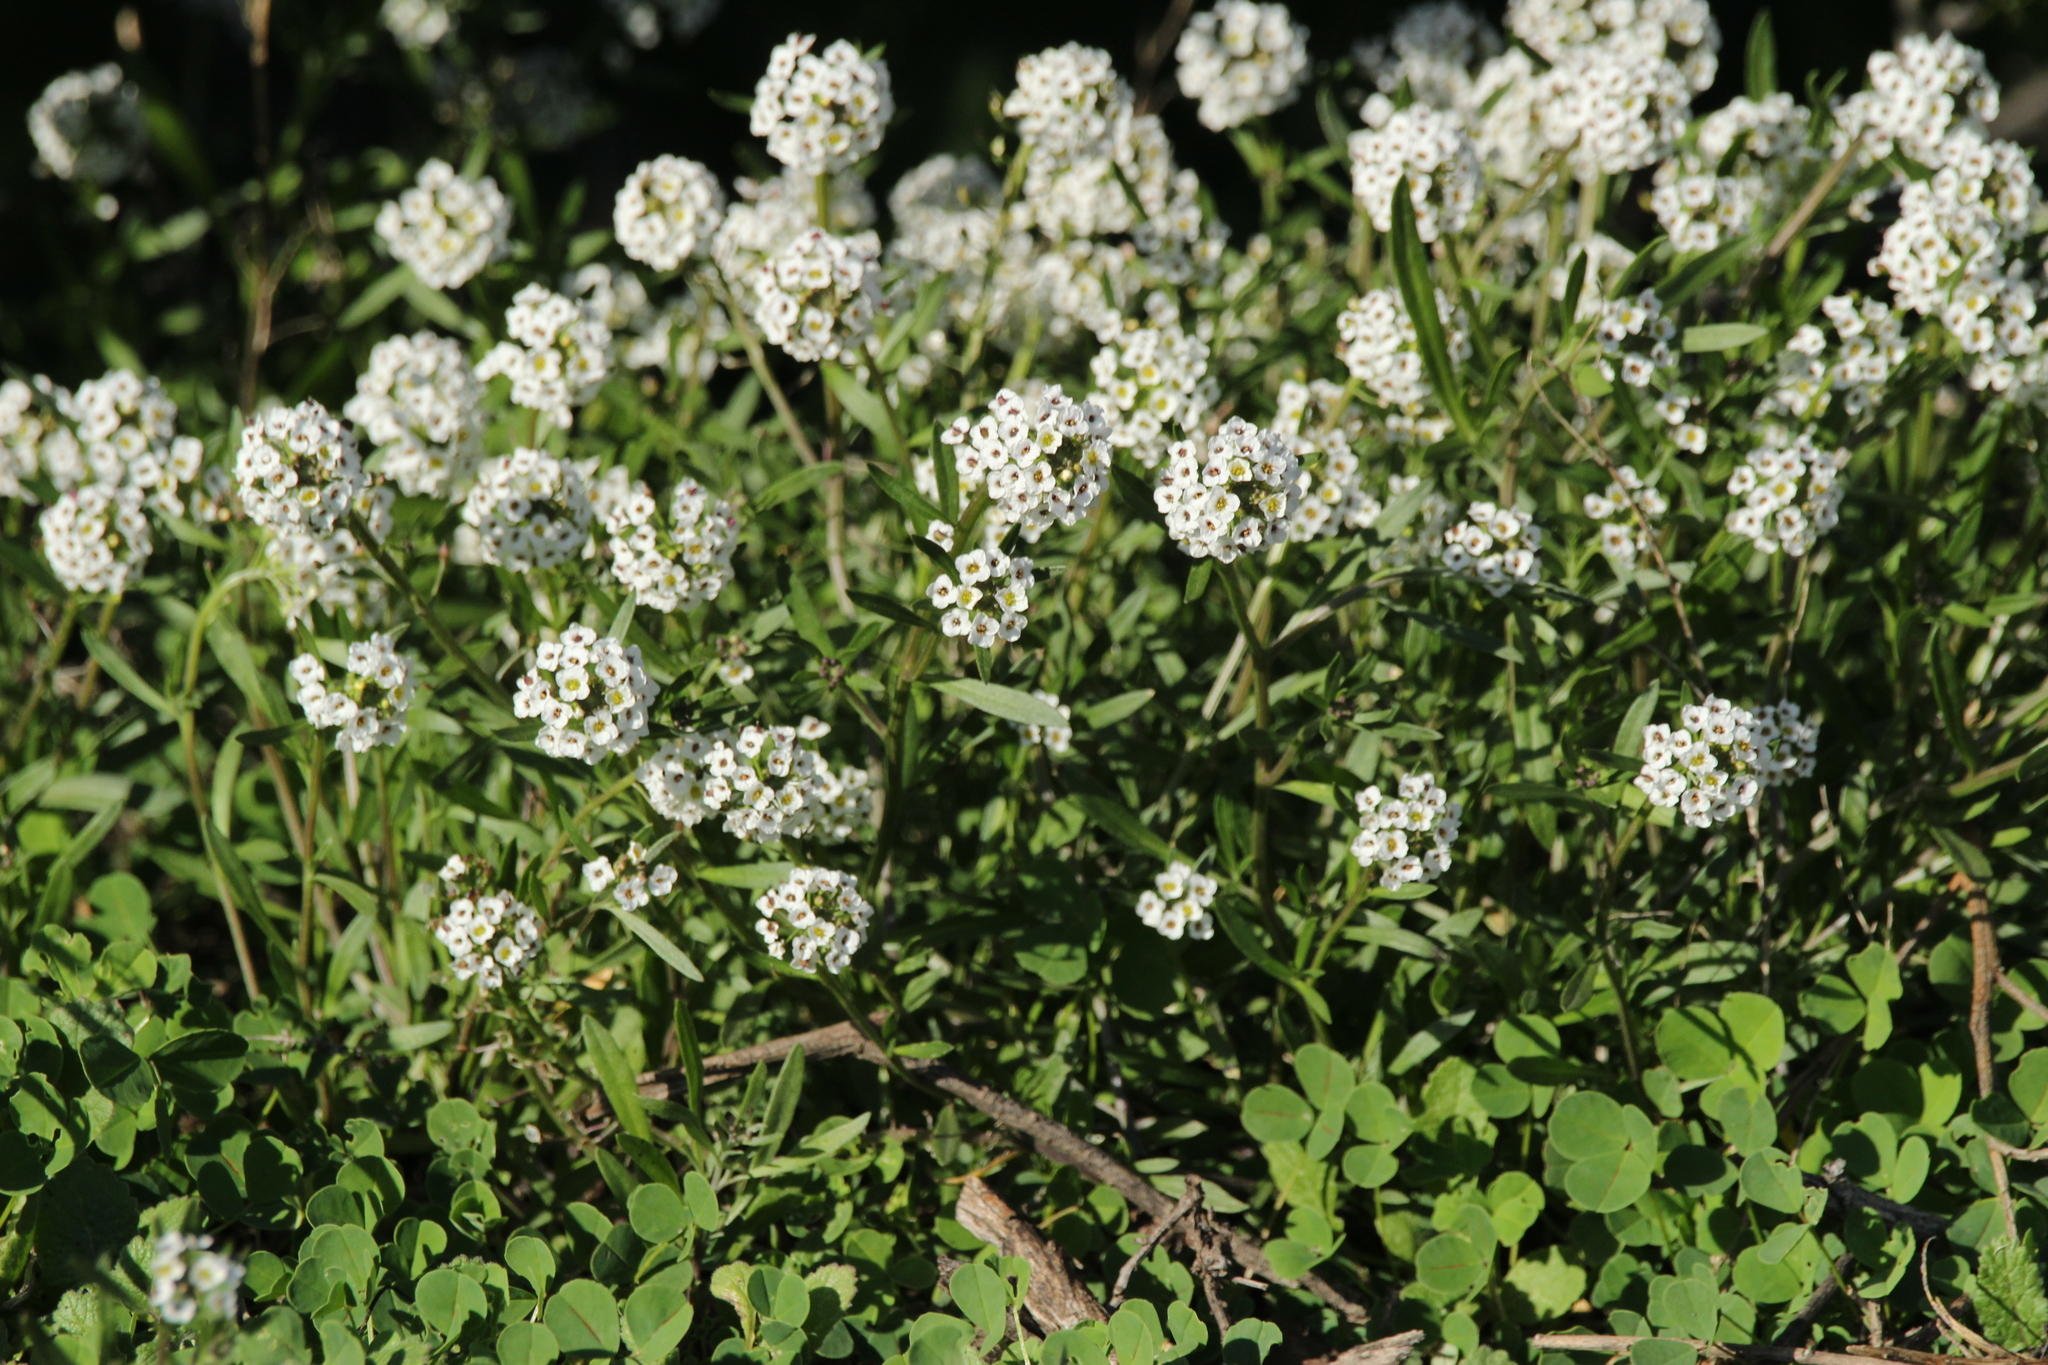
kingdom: Plantae
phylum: Tracheophyta
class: Magnoliopsida
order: Brassicales
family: Brassicaceae
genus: Lobularia
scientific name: Lobularia maritima
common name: Sweet alison
